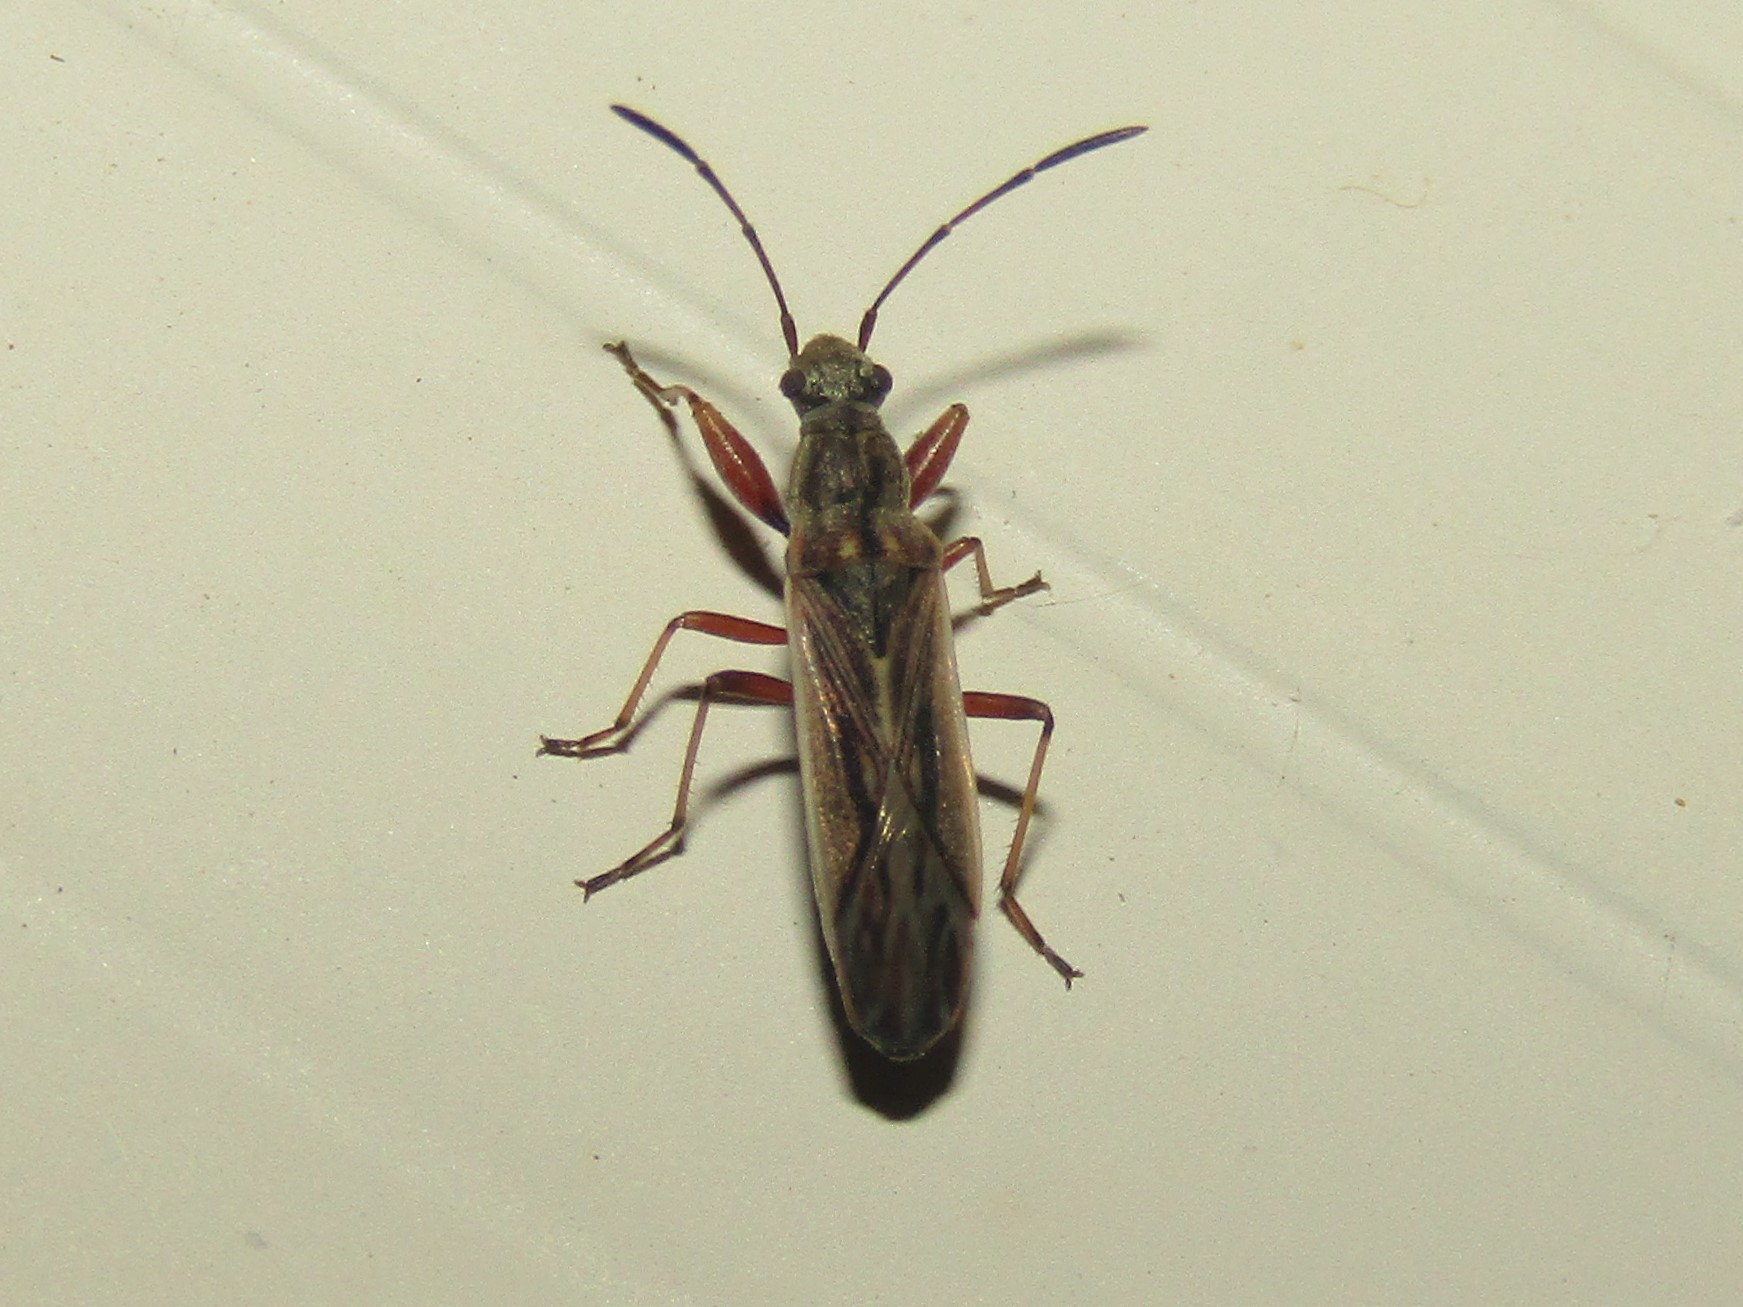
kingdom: Animalia
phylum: Arthropoda
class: Insecta
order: Hemiptera
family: Rhyparochromidae
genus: Paromius
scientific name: Paromius longulus
